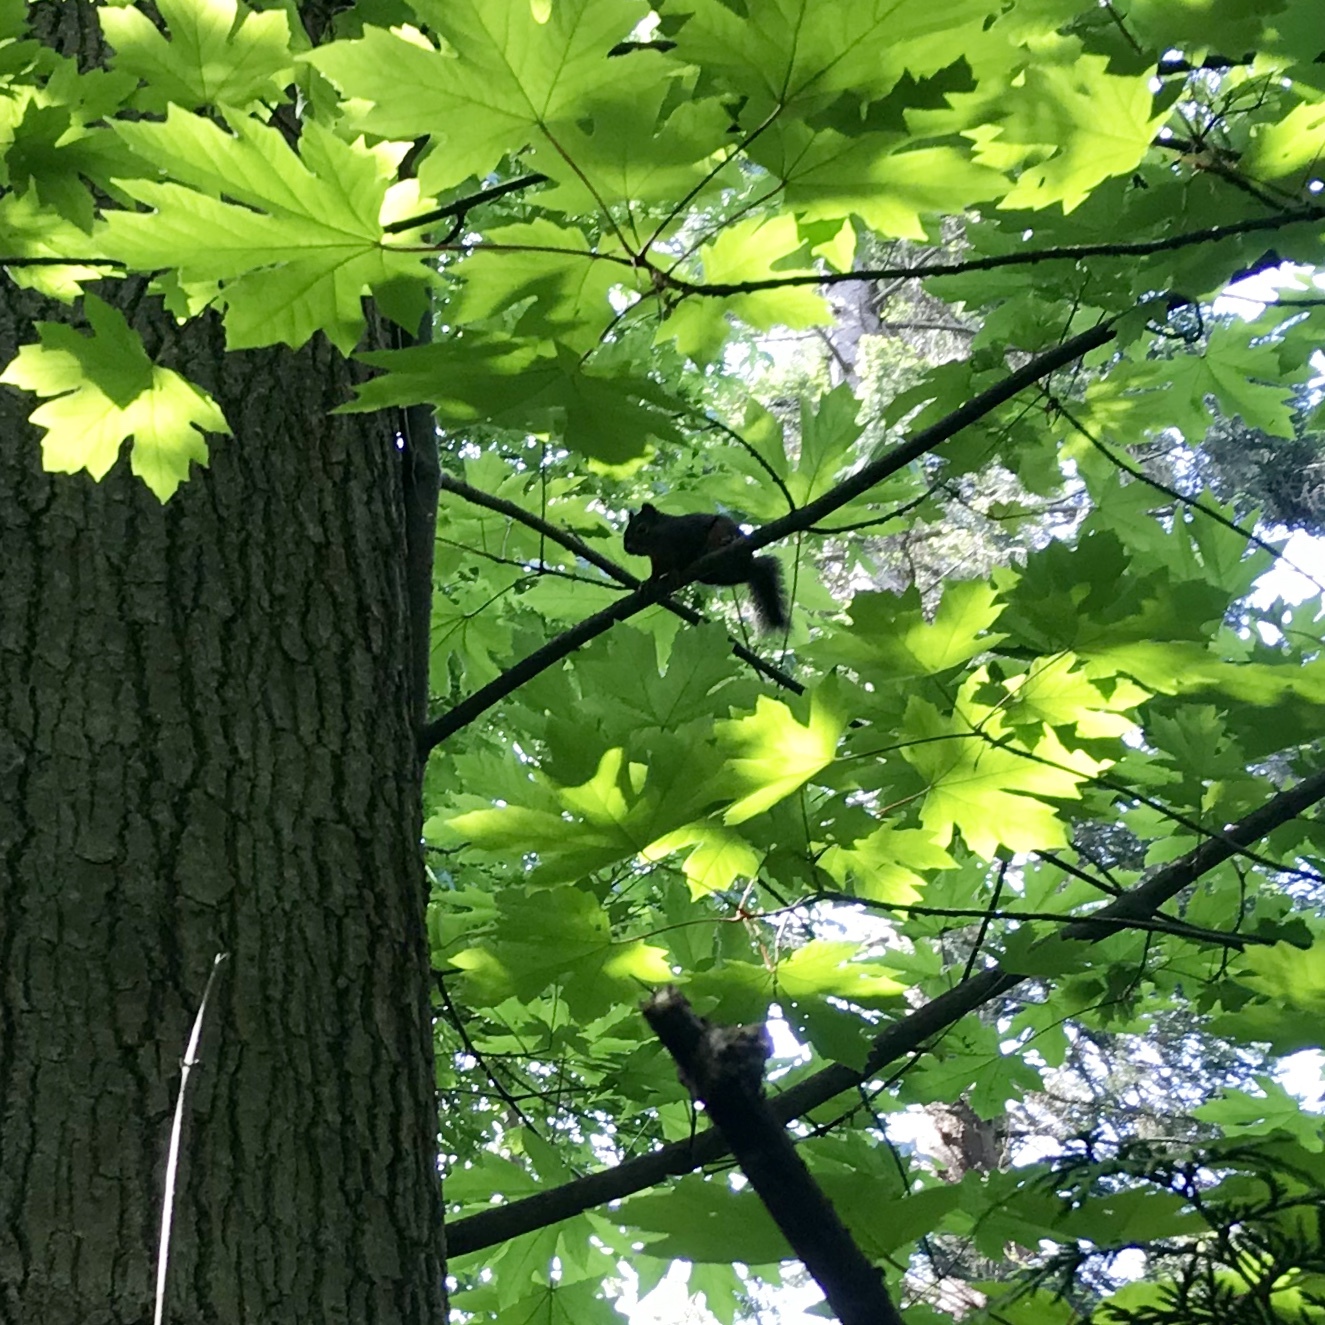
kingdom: Animalia
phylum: Chordata
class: Mammalia
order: Rodentia
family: Sciuridae
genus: Tamiasciurus
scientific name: Tamiasciurus douglasii
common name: Douglas's squirrel
